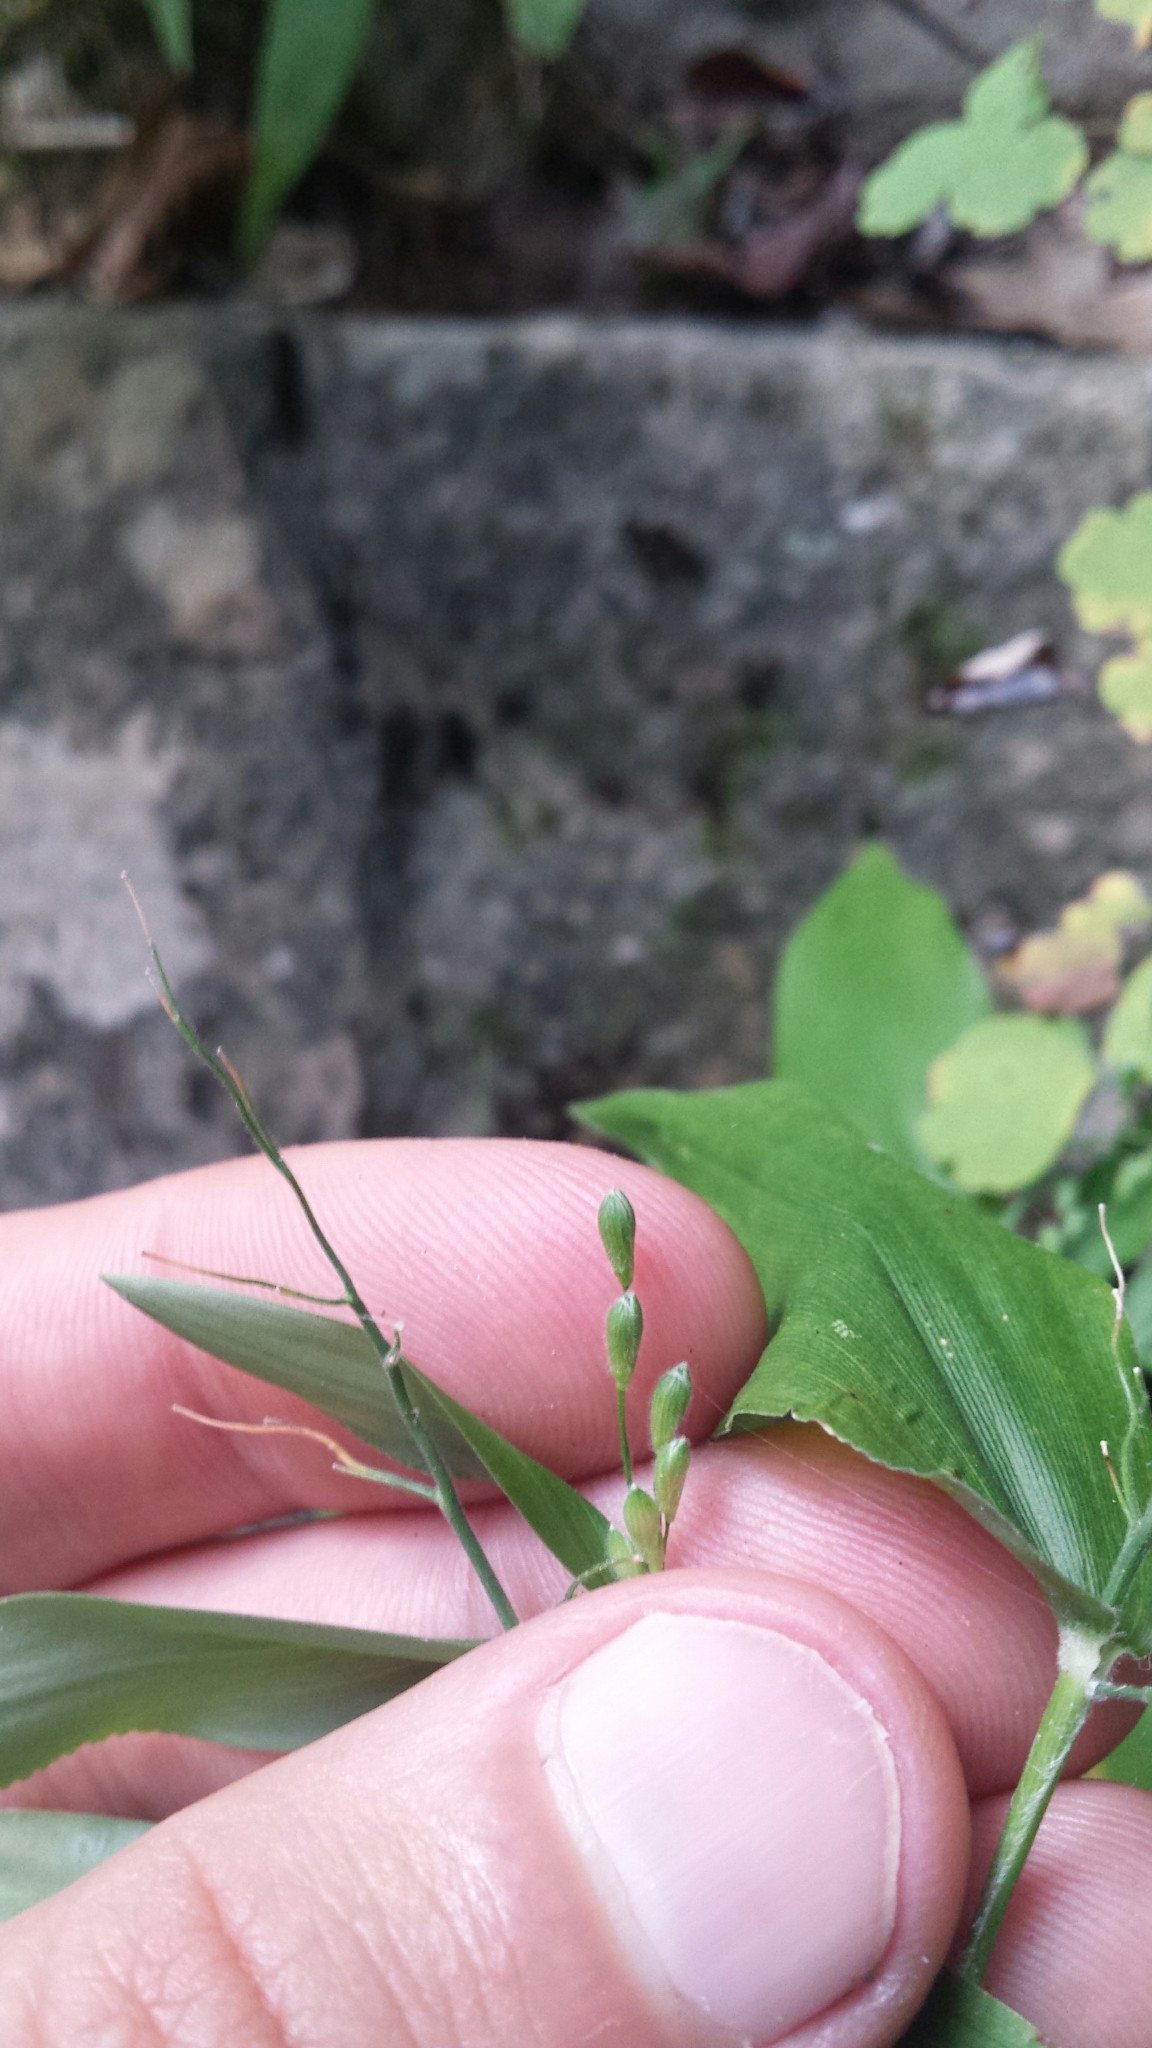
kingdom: Plantae
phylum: Tracheophyta
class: Liliopsida
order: Poales
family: Poaceae
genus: Dichanthelium
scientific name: Dichanthelium boscii
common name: Bosc's panic grass
